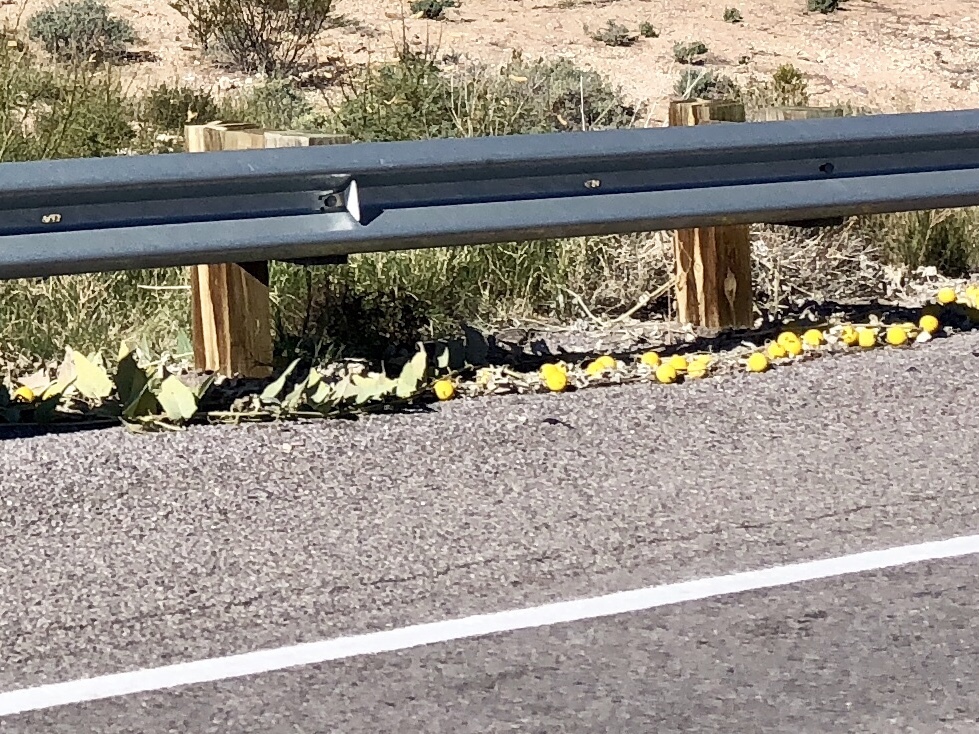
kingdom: Plantae
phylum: Tracheophyta
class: Magnoliopsida
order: Cucurbitales
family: Cucurbitaceae
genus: Cucurbita
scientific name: Cucurbita foetidissima
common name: Buffalo gourd
